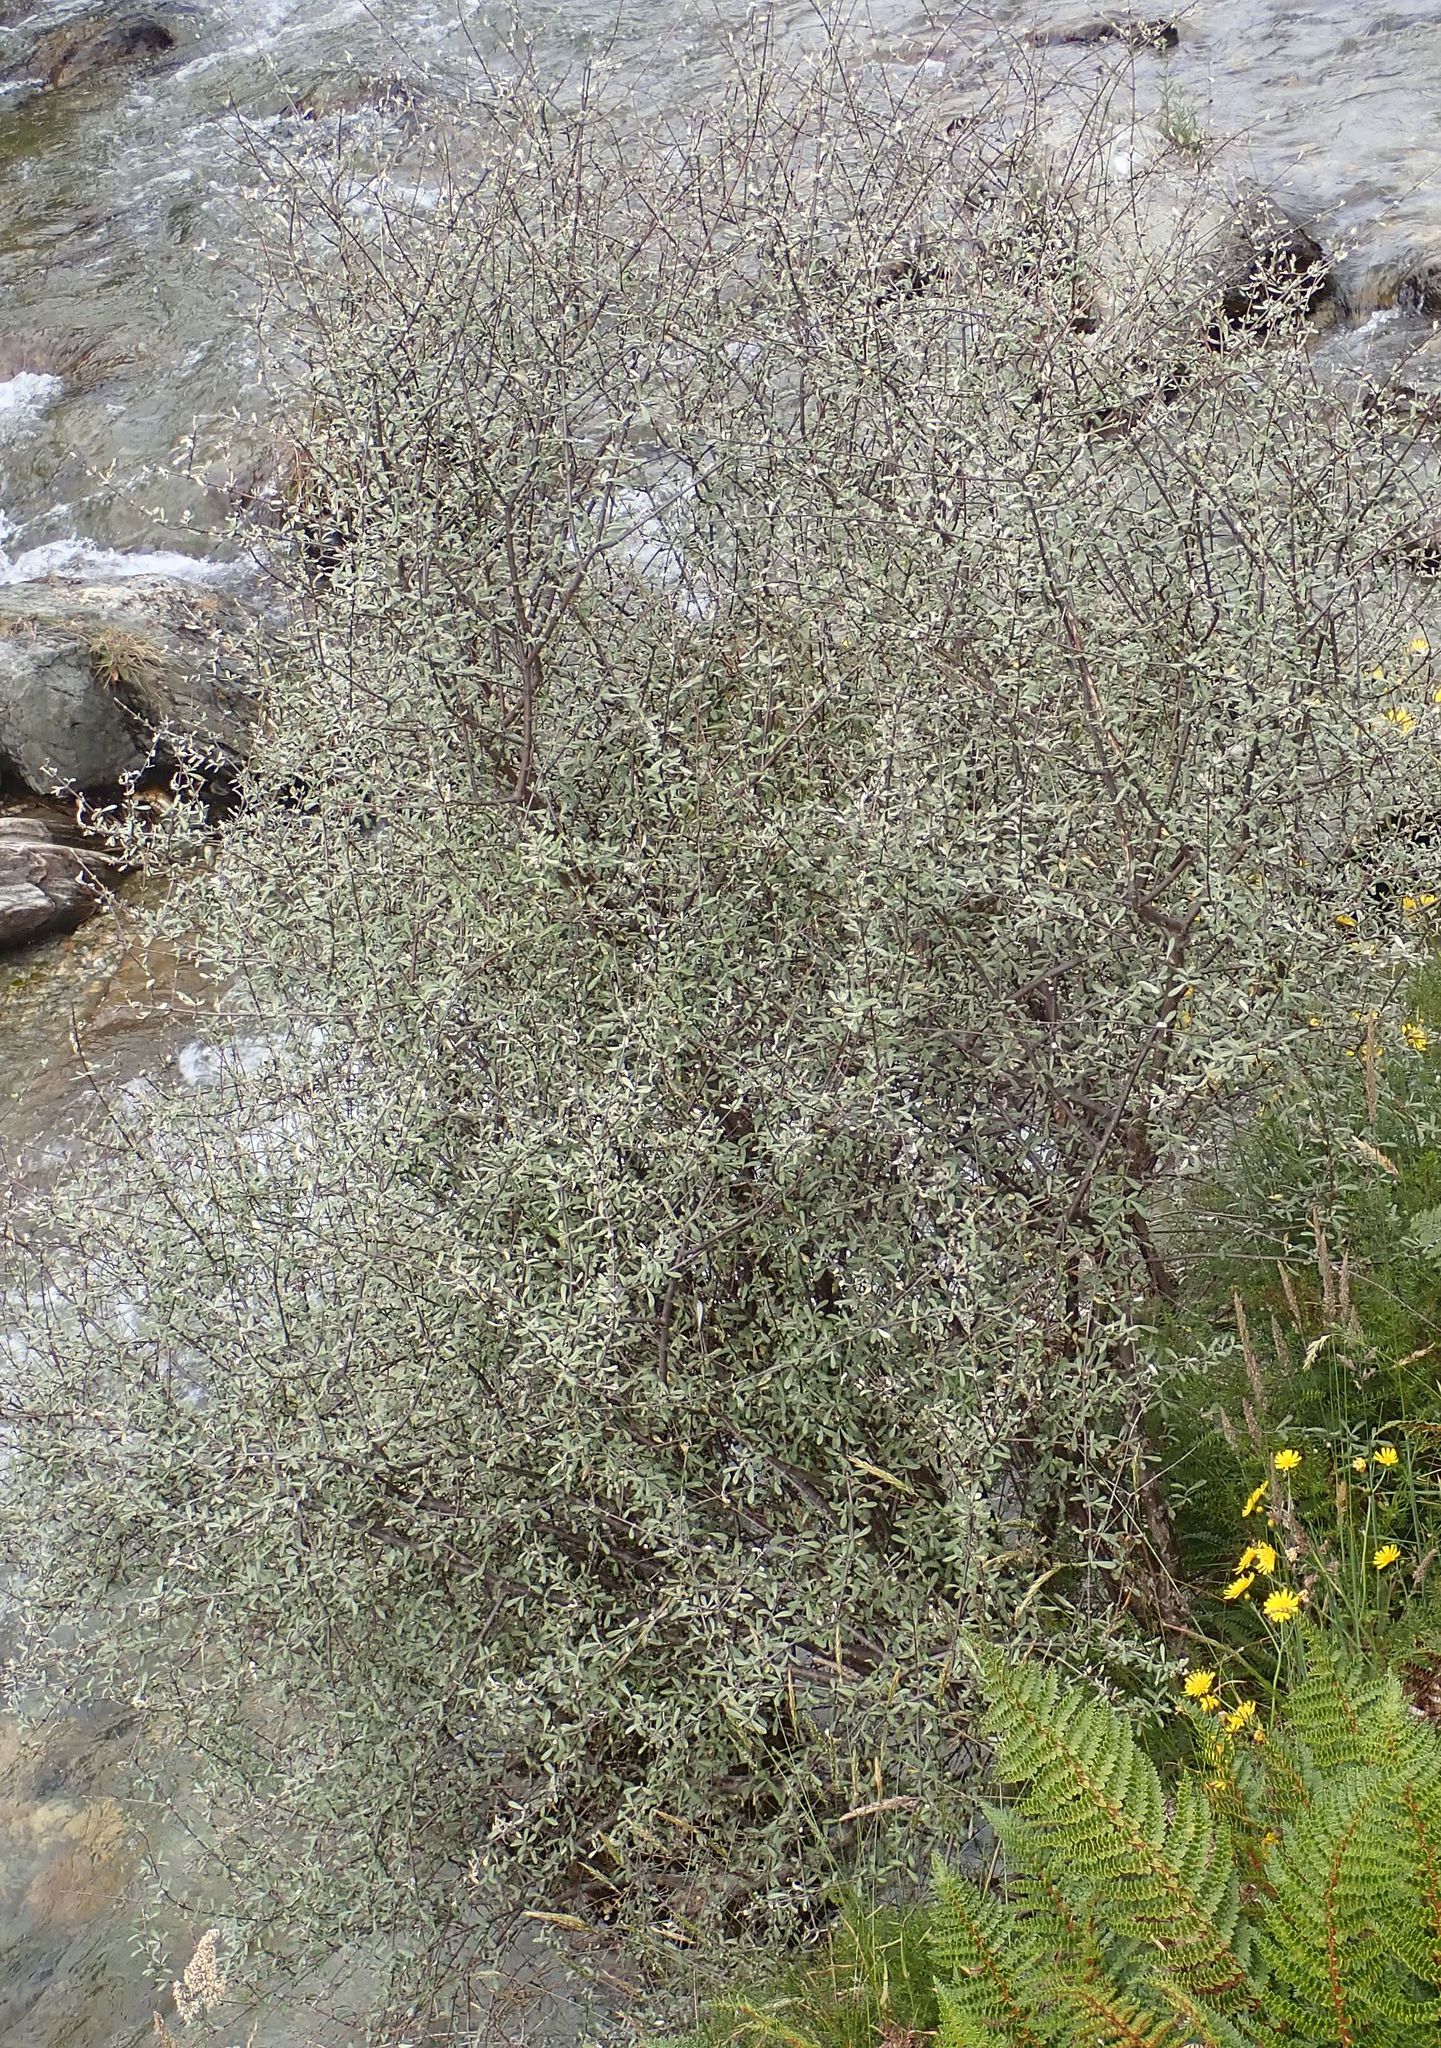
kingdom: Plantae
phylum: Tracheophyta
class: Magnoliopsida
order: Asterales
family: Asteraceae
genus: Olearia
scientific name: Olearia odorata
